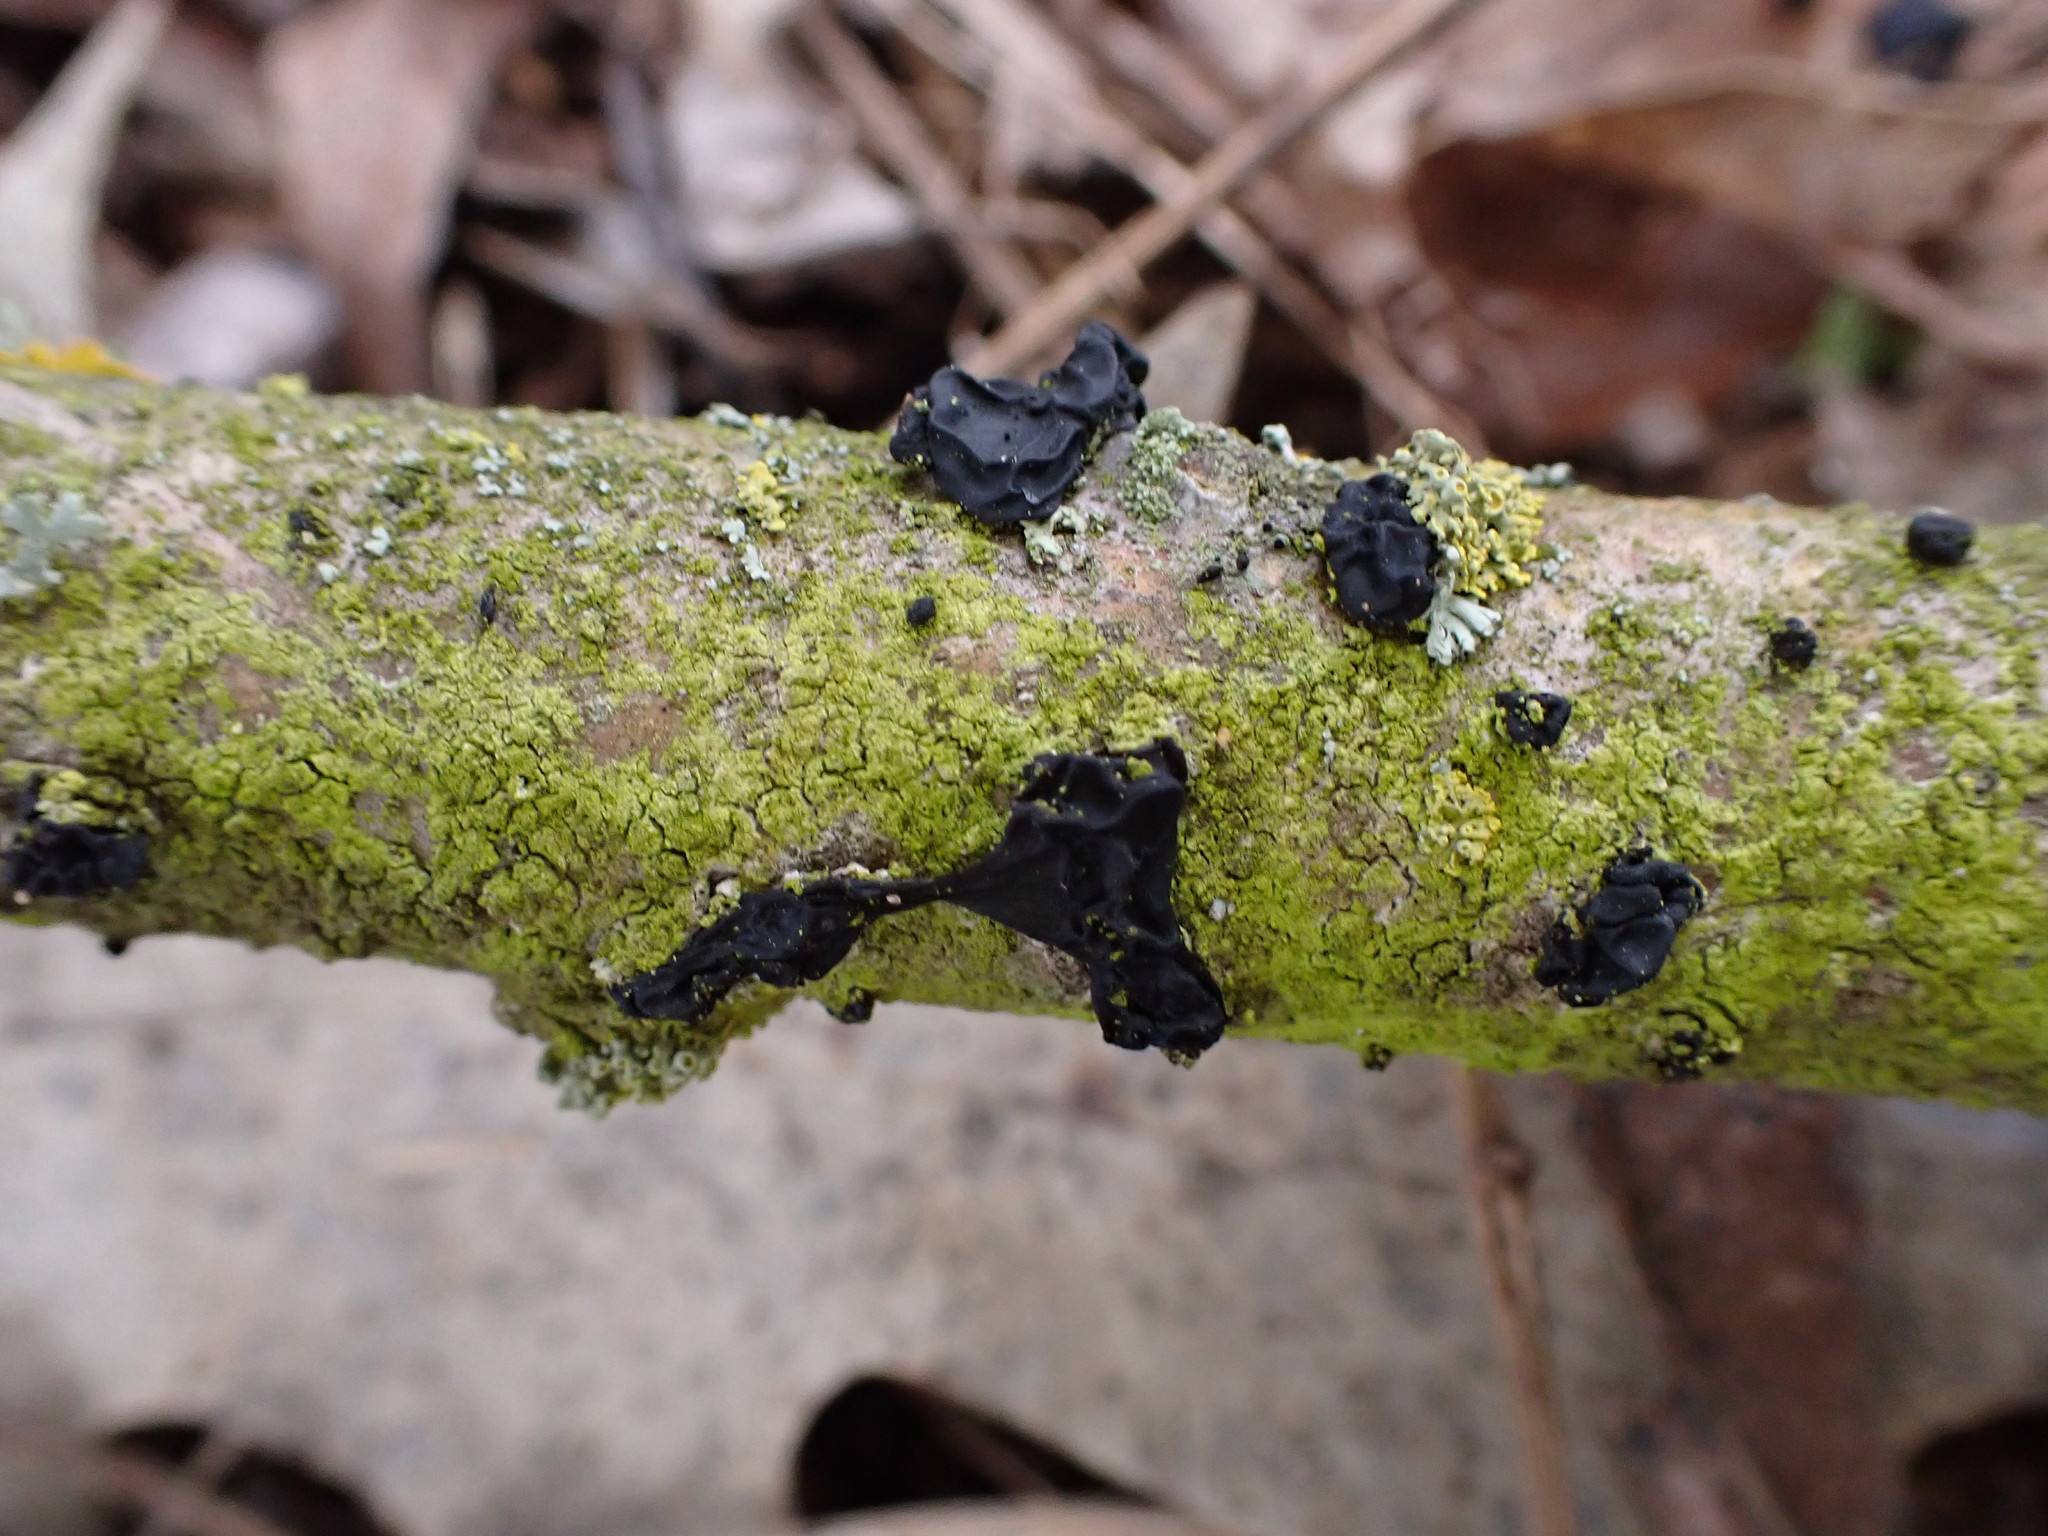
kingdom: Fungi
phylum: Basidiomycota
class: Agaricomycetes
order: Auriculariales
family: Auriculariaceae
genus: Exidia
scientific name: Exidia nigricans
